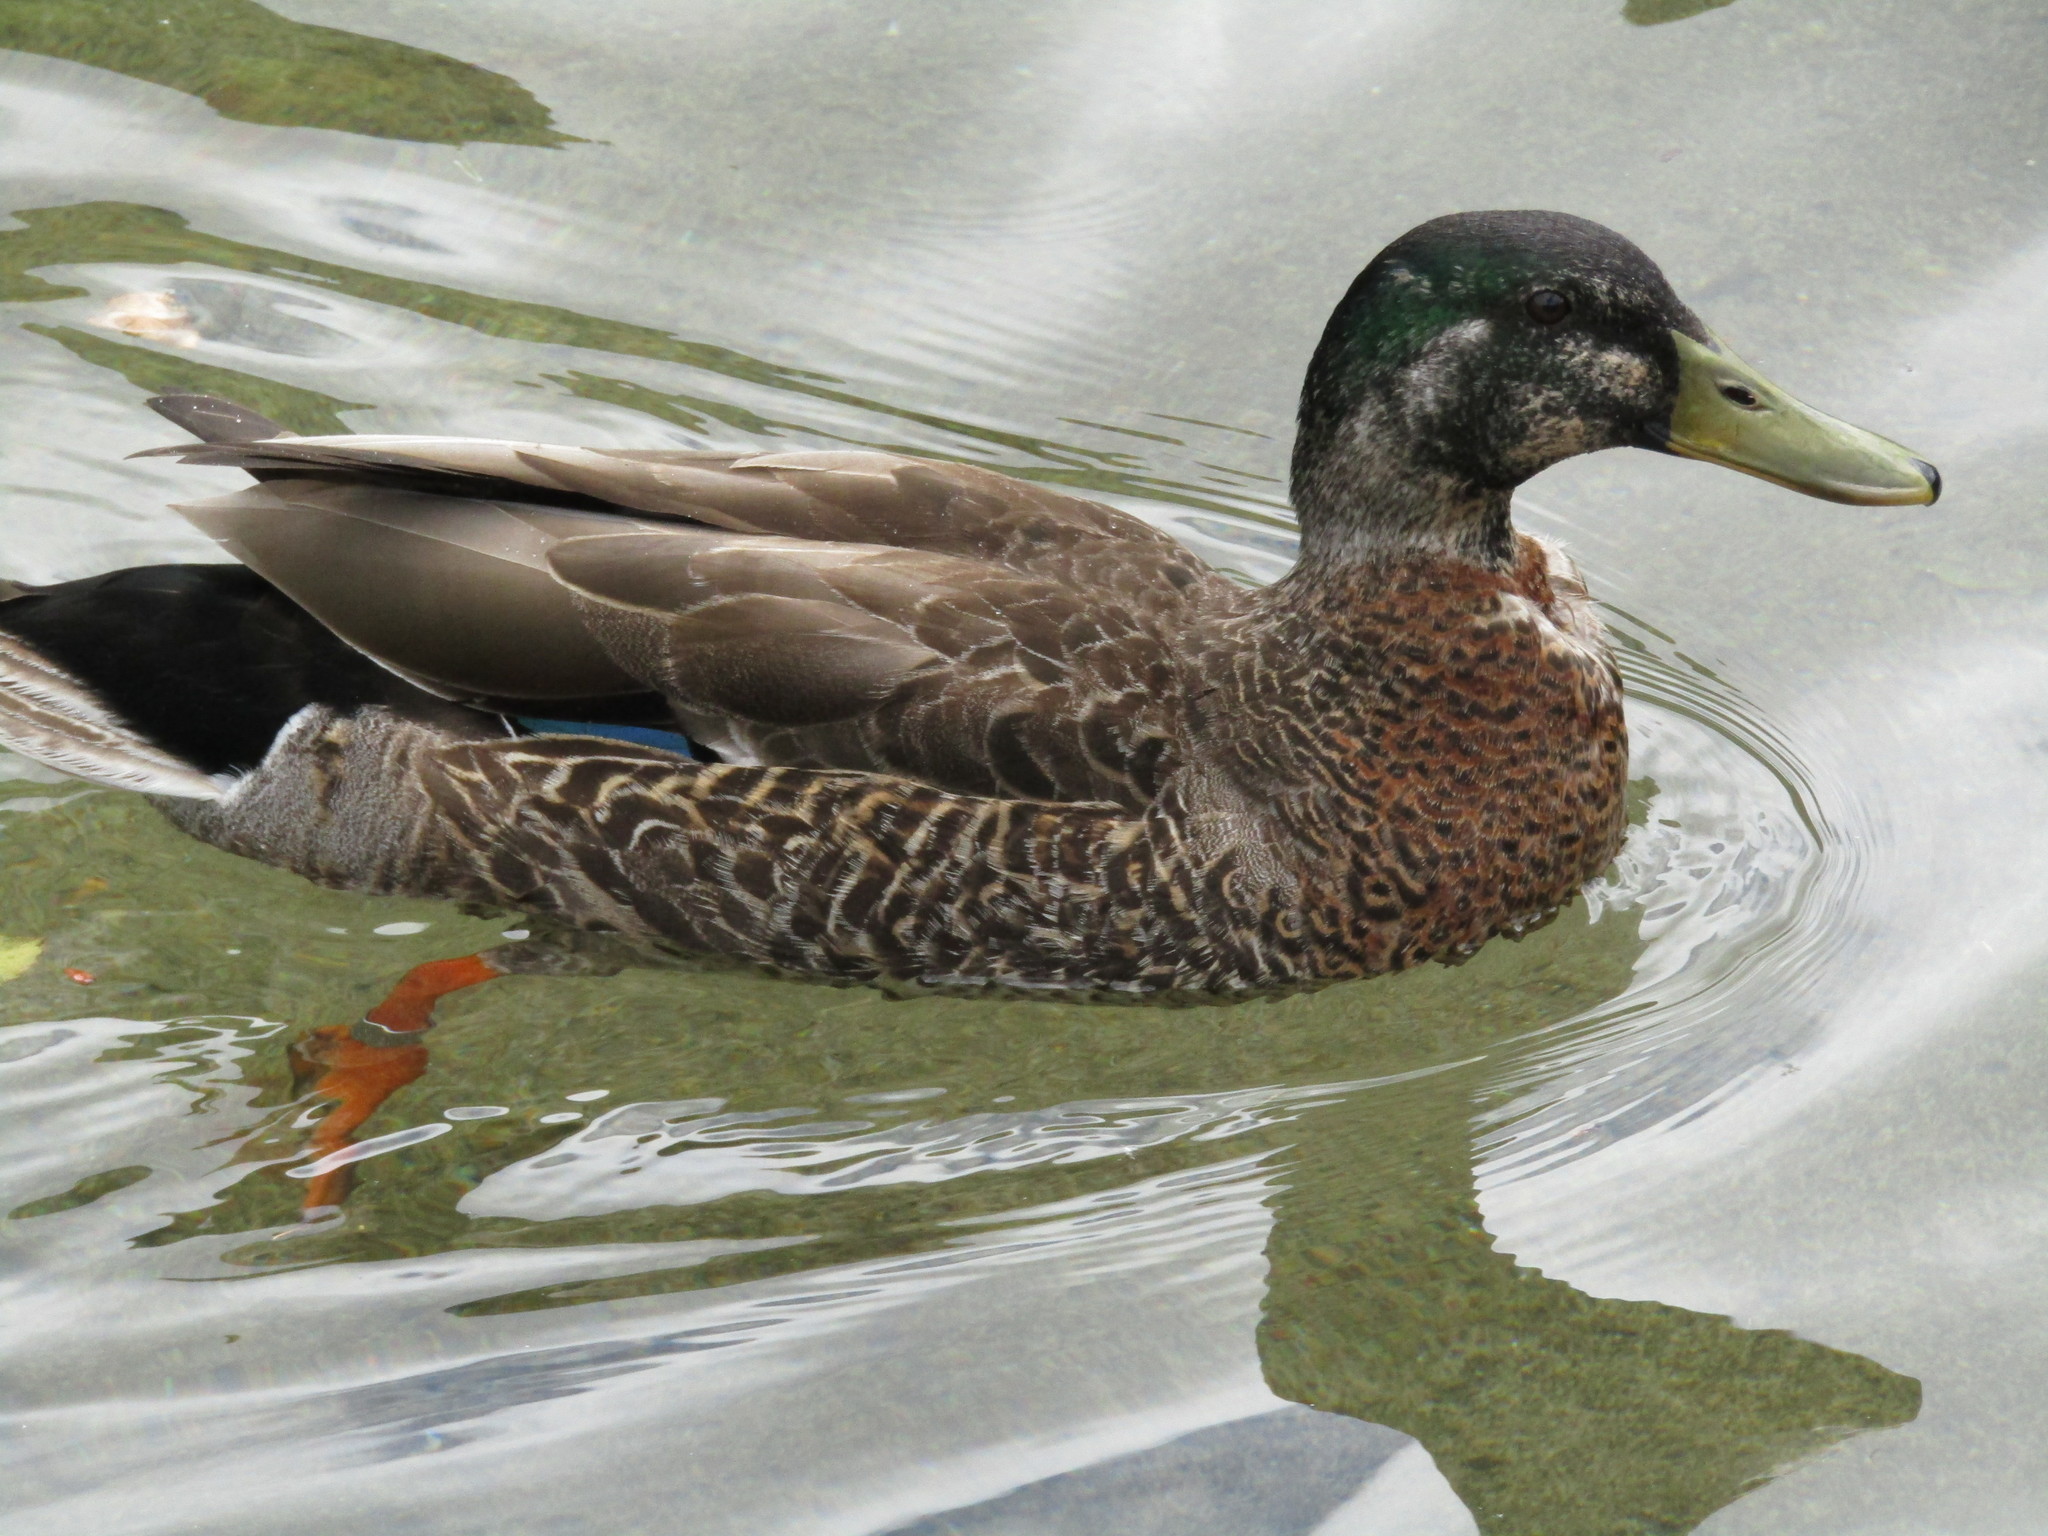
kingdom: Animalia
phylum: Chordata
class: Aves
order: Anseriformes
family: Anatidae
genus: Anas
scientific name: Anas
